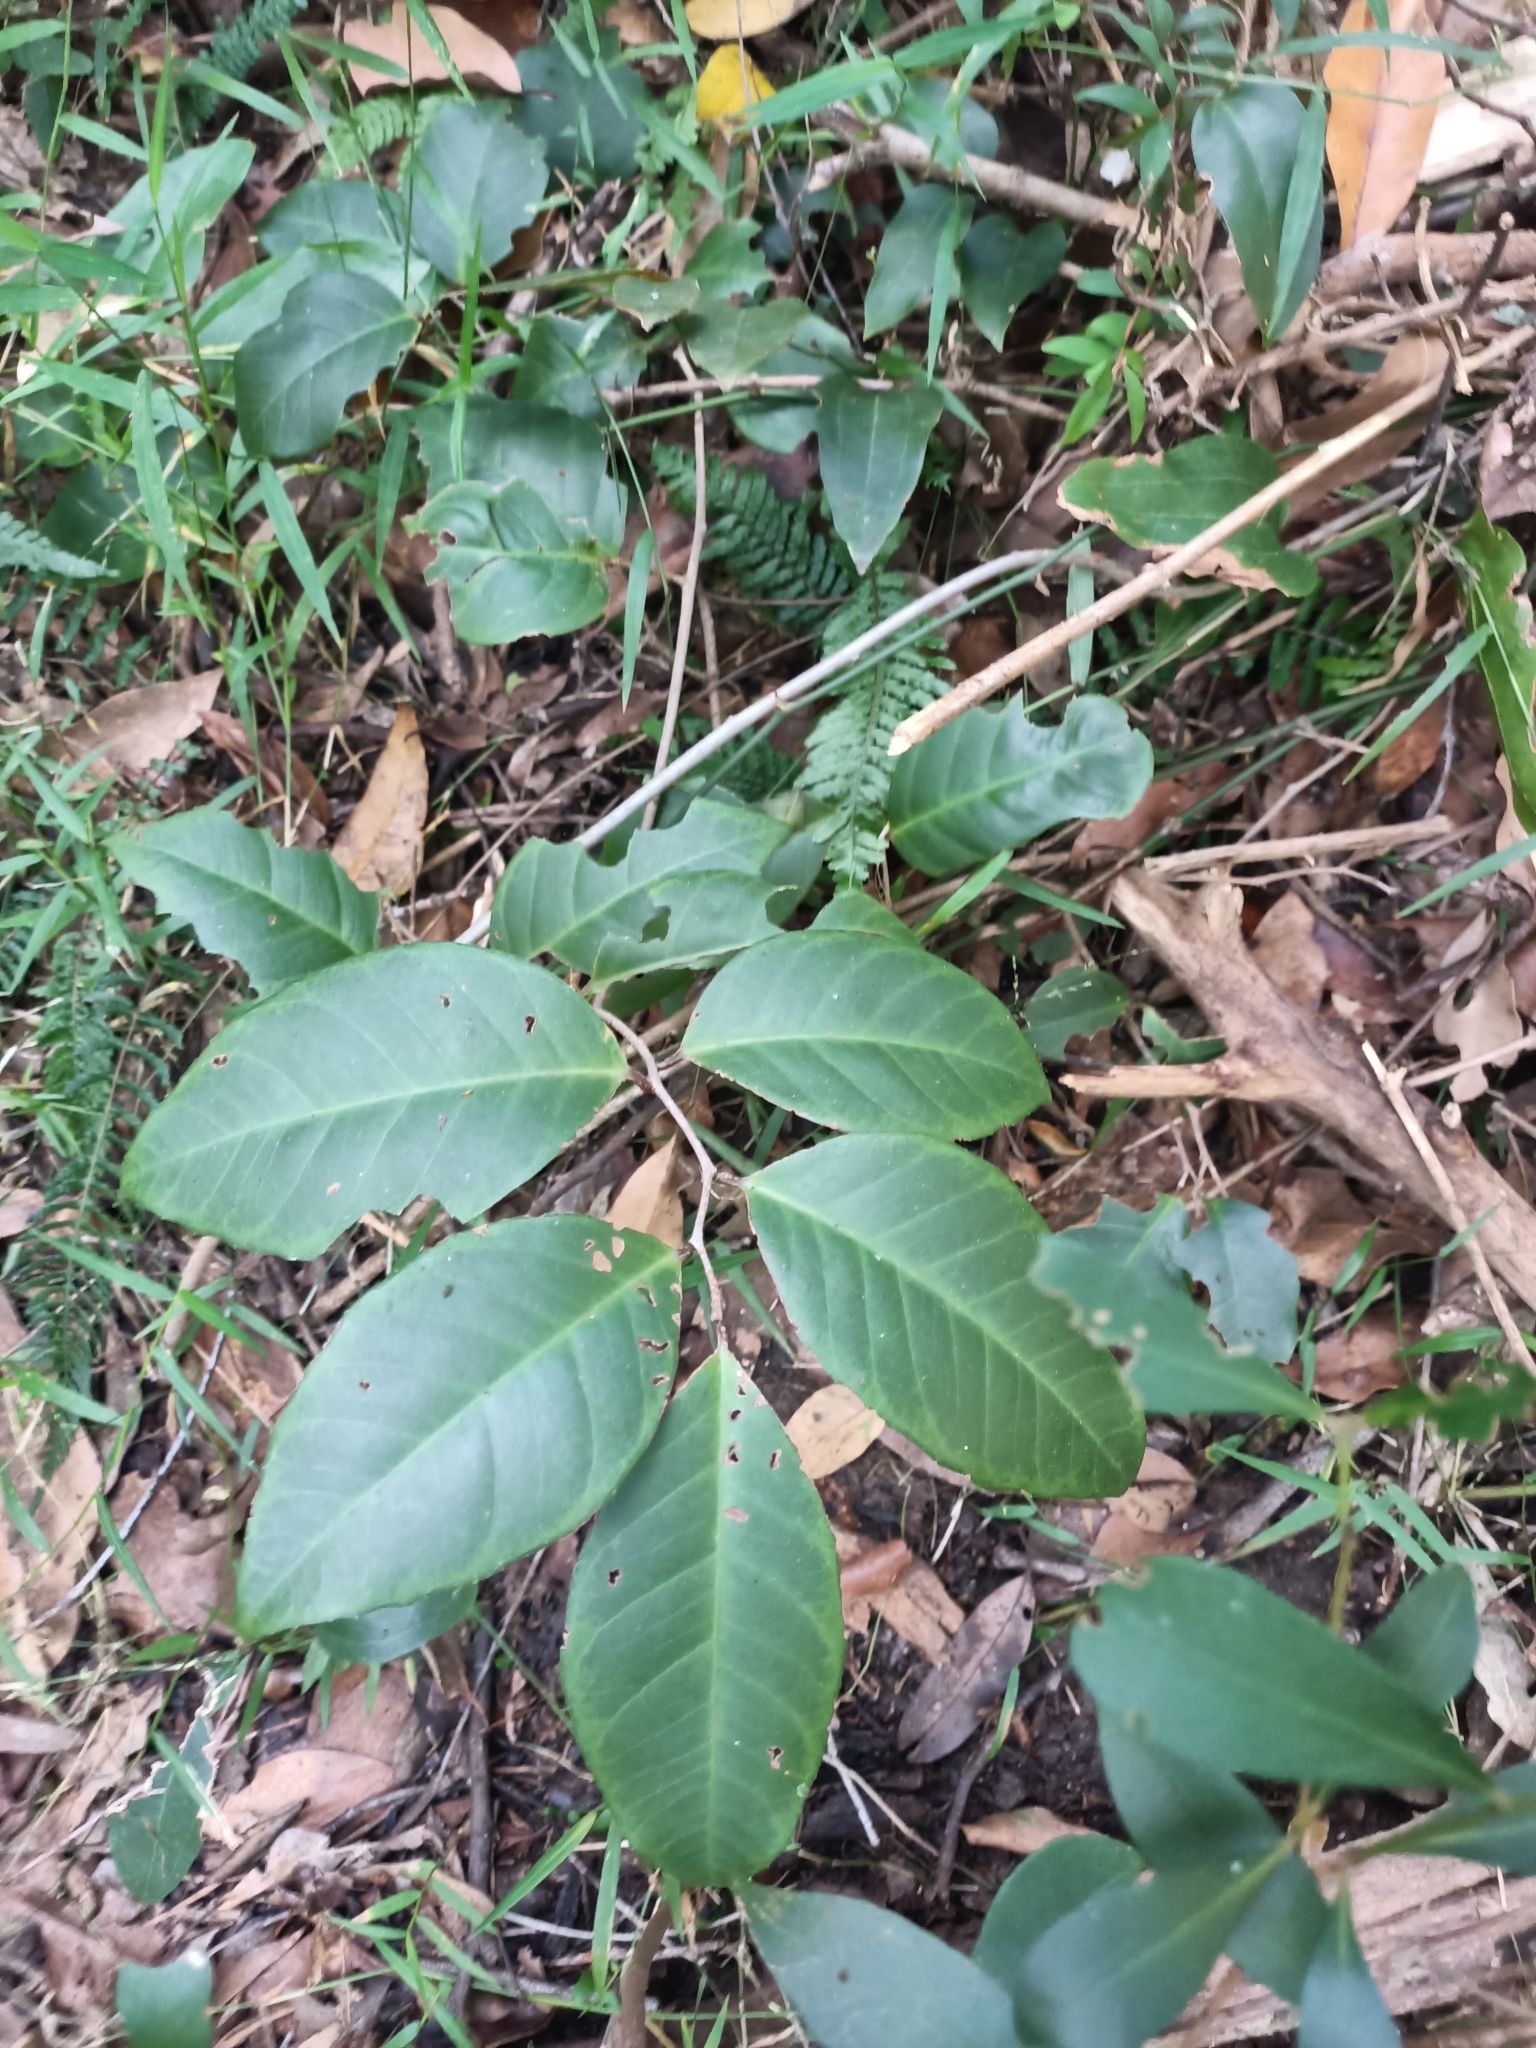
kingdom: Plantae
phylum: Tracheophyta
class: Magnoliopsida
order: Ericales
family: Primulaceae
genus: Embelia
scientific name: Embelia australiana
